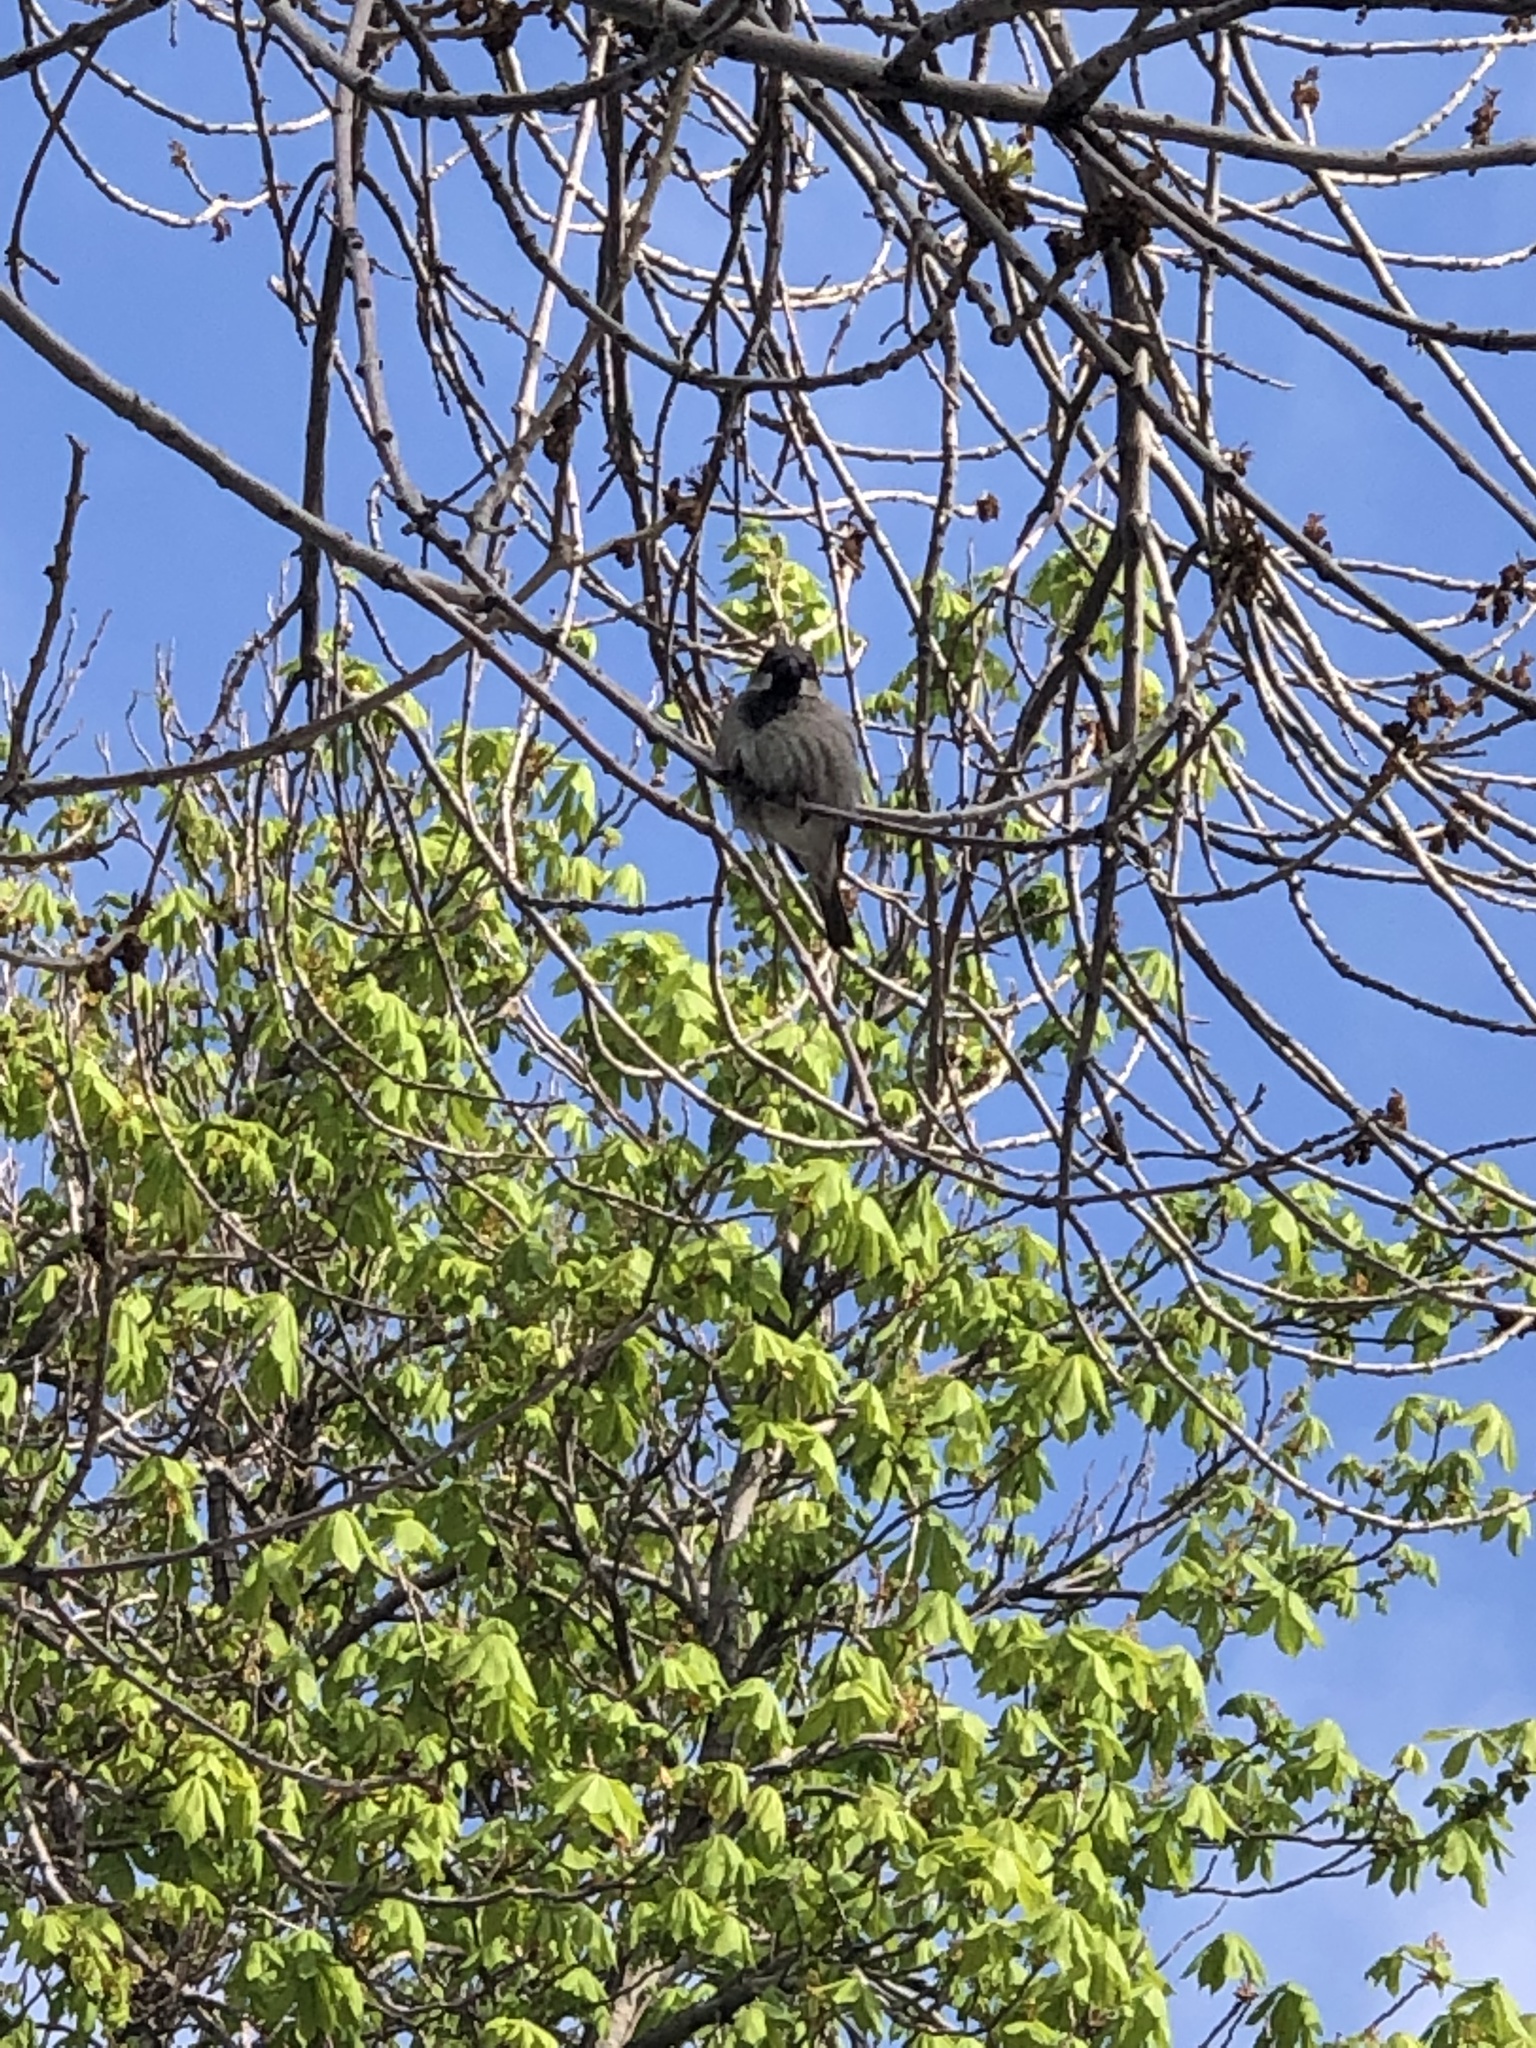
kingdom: Animalia
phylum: Chordata
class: Aves
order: Passeriformes
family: Passeridae
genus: Passer
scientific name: Passer domesticus
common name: House sparrow
